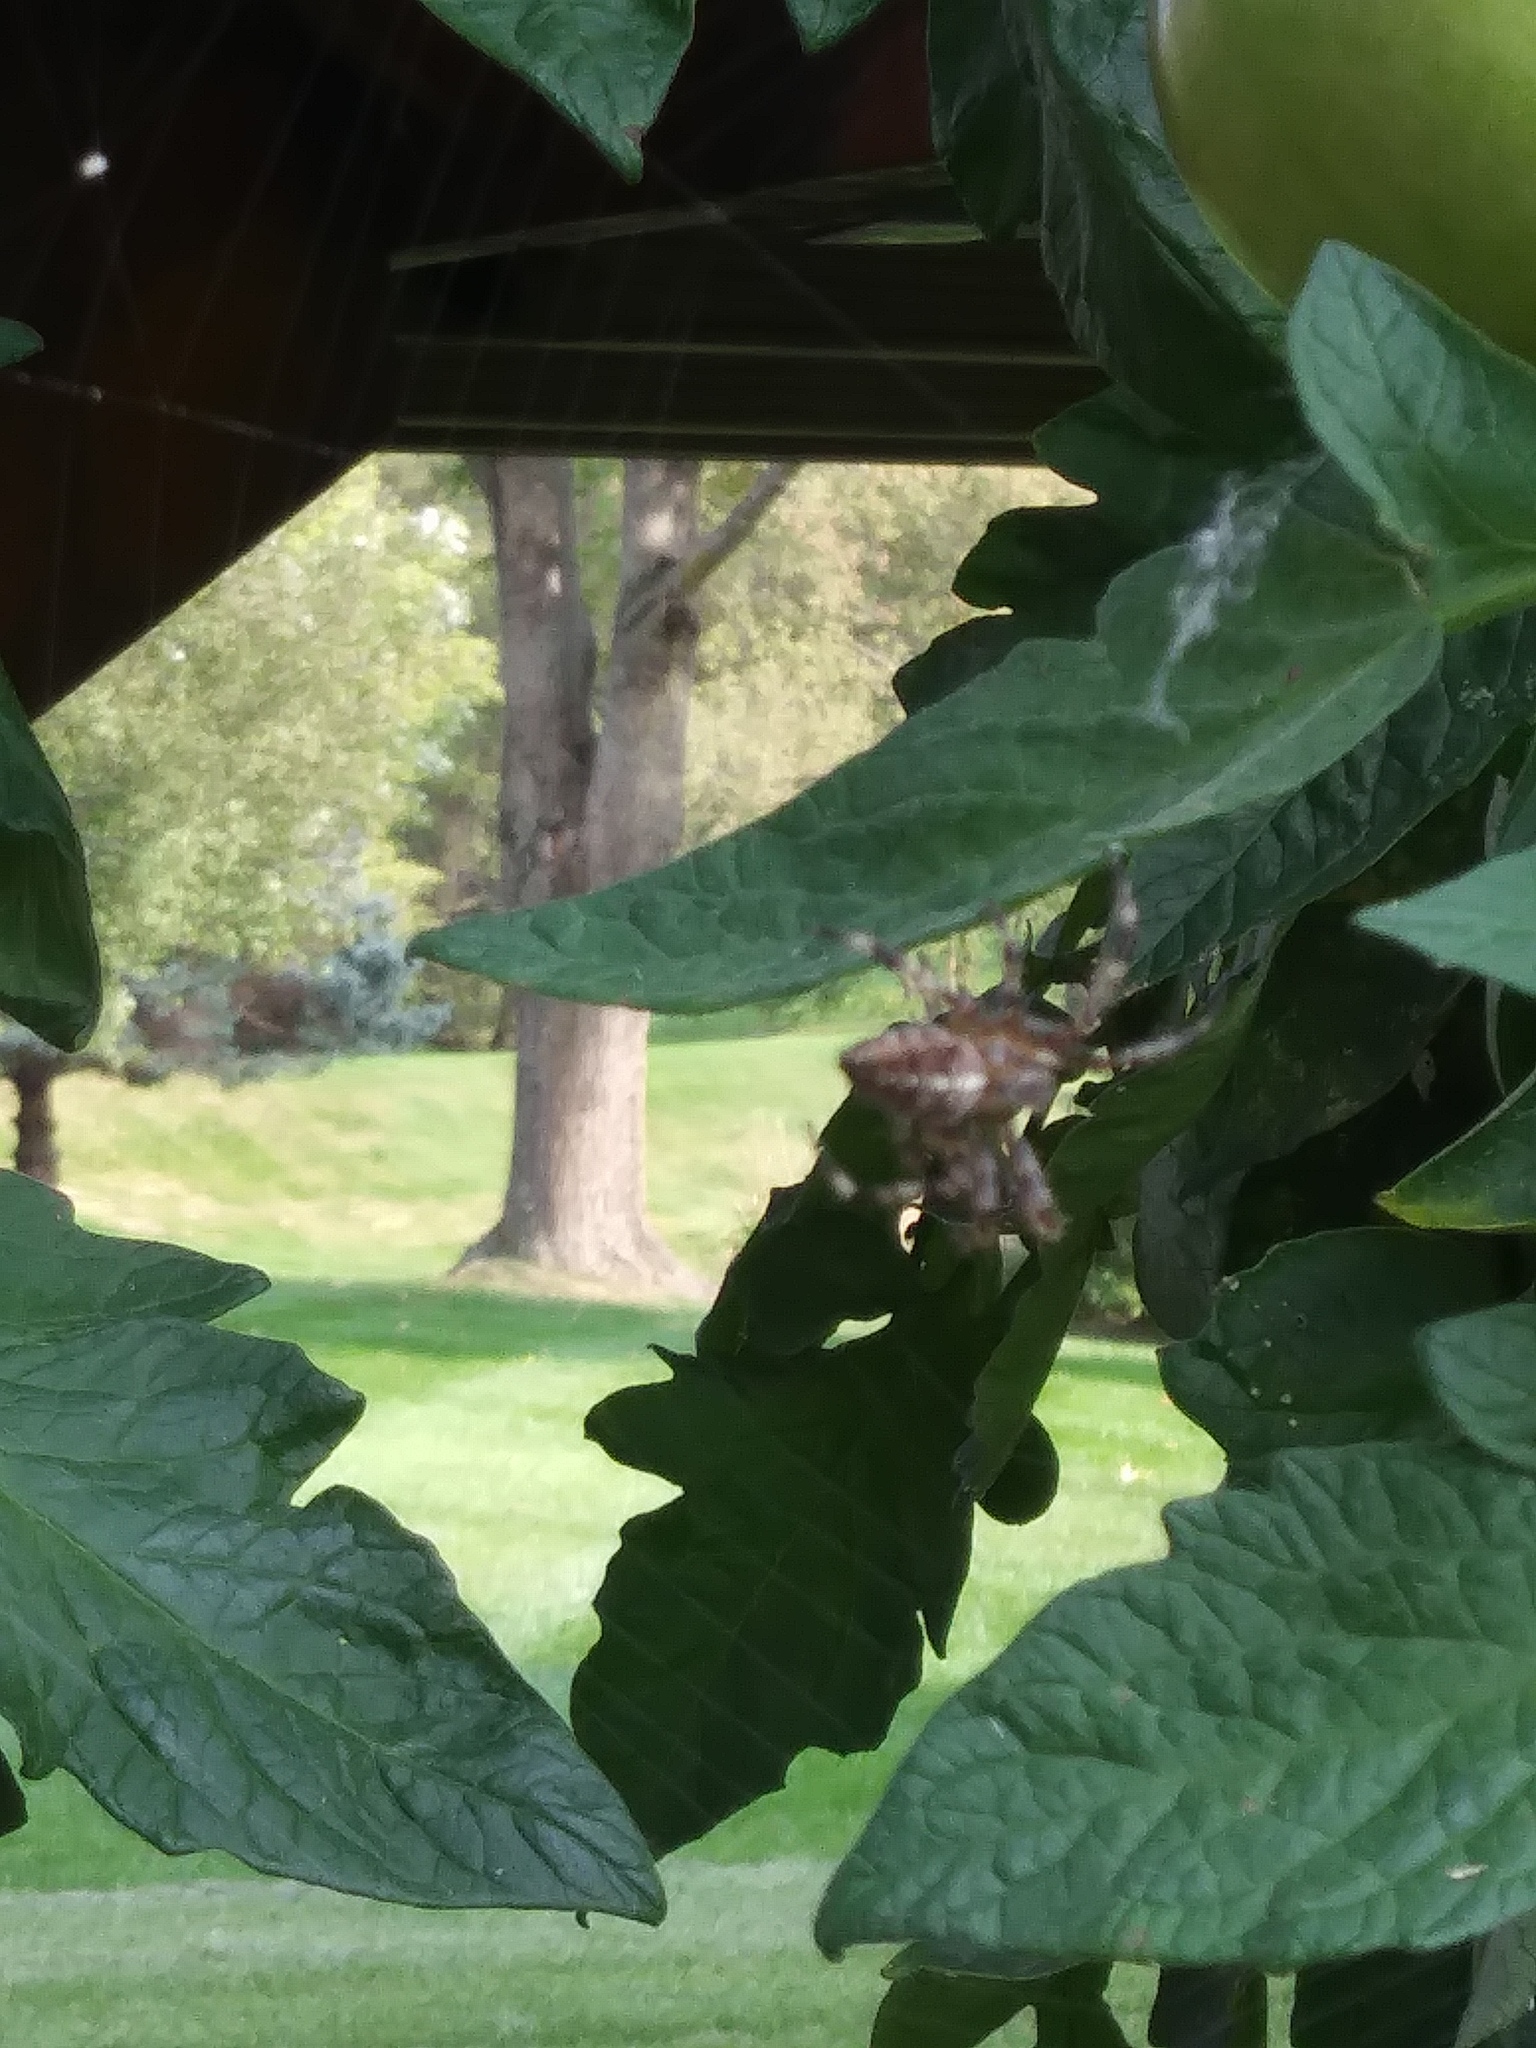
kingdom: Animalia
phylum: Arthropoda
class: Arachnida
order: Araneae
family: Araneidae
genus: Araneus
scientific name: Araneus diadematus
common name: Cross orbweaver
